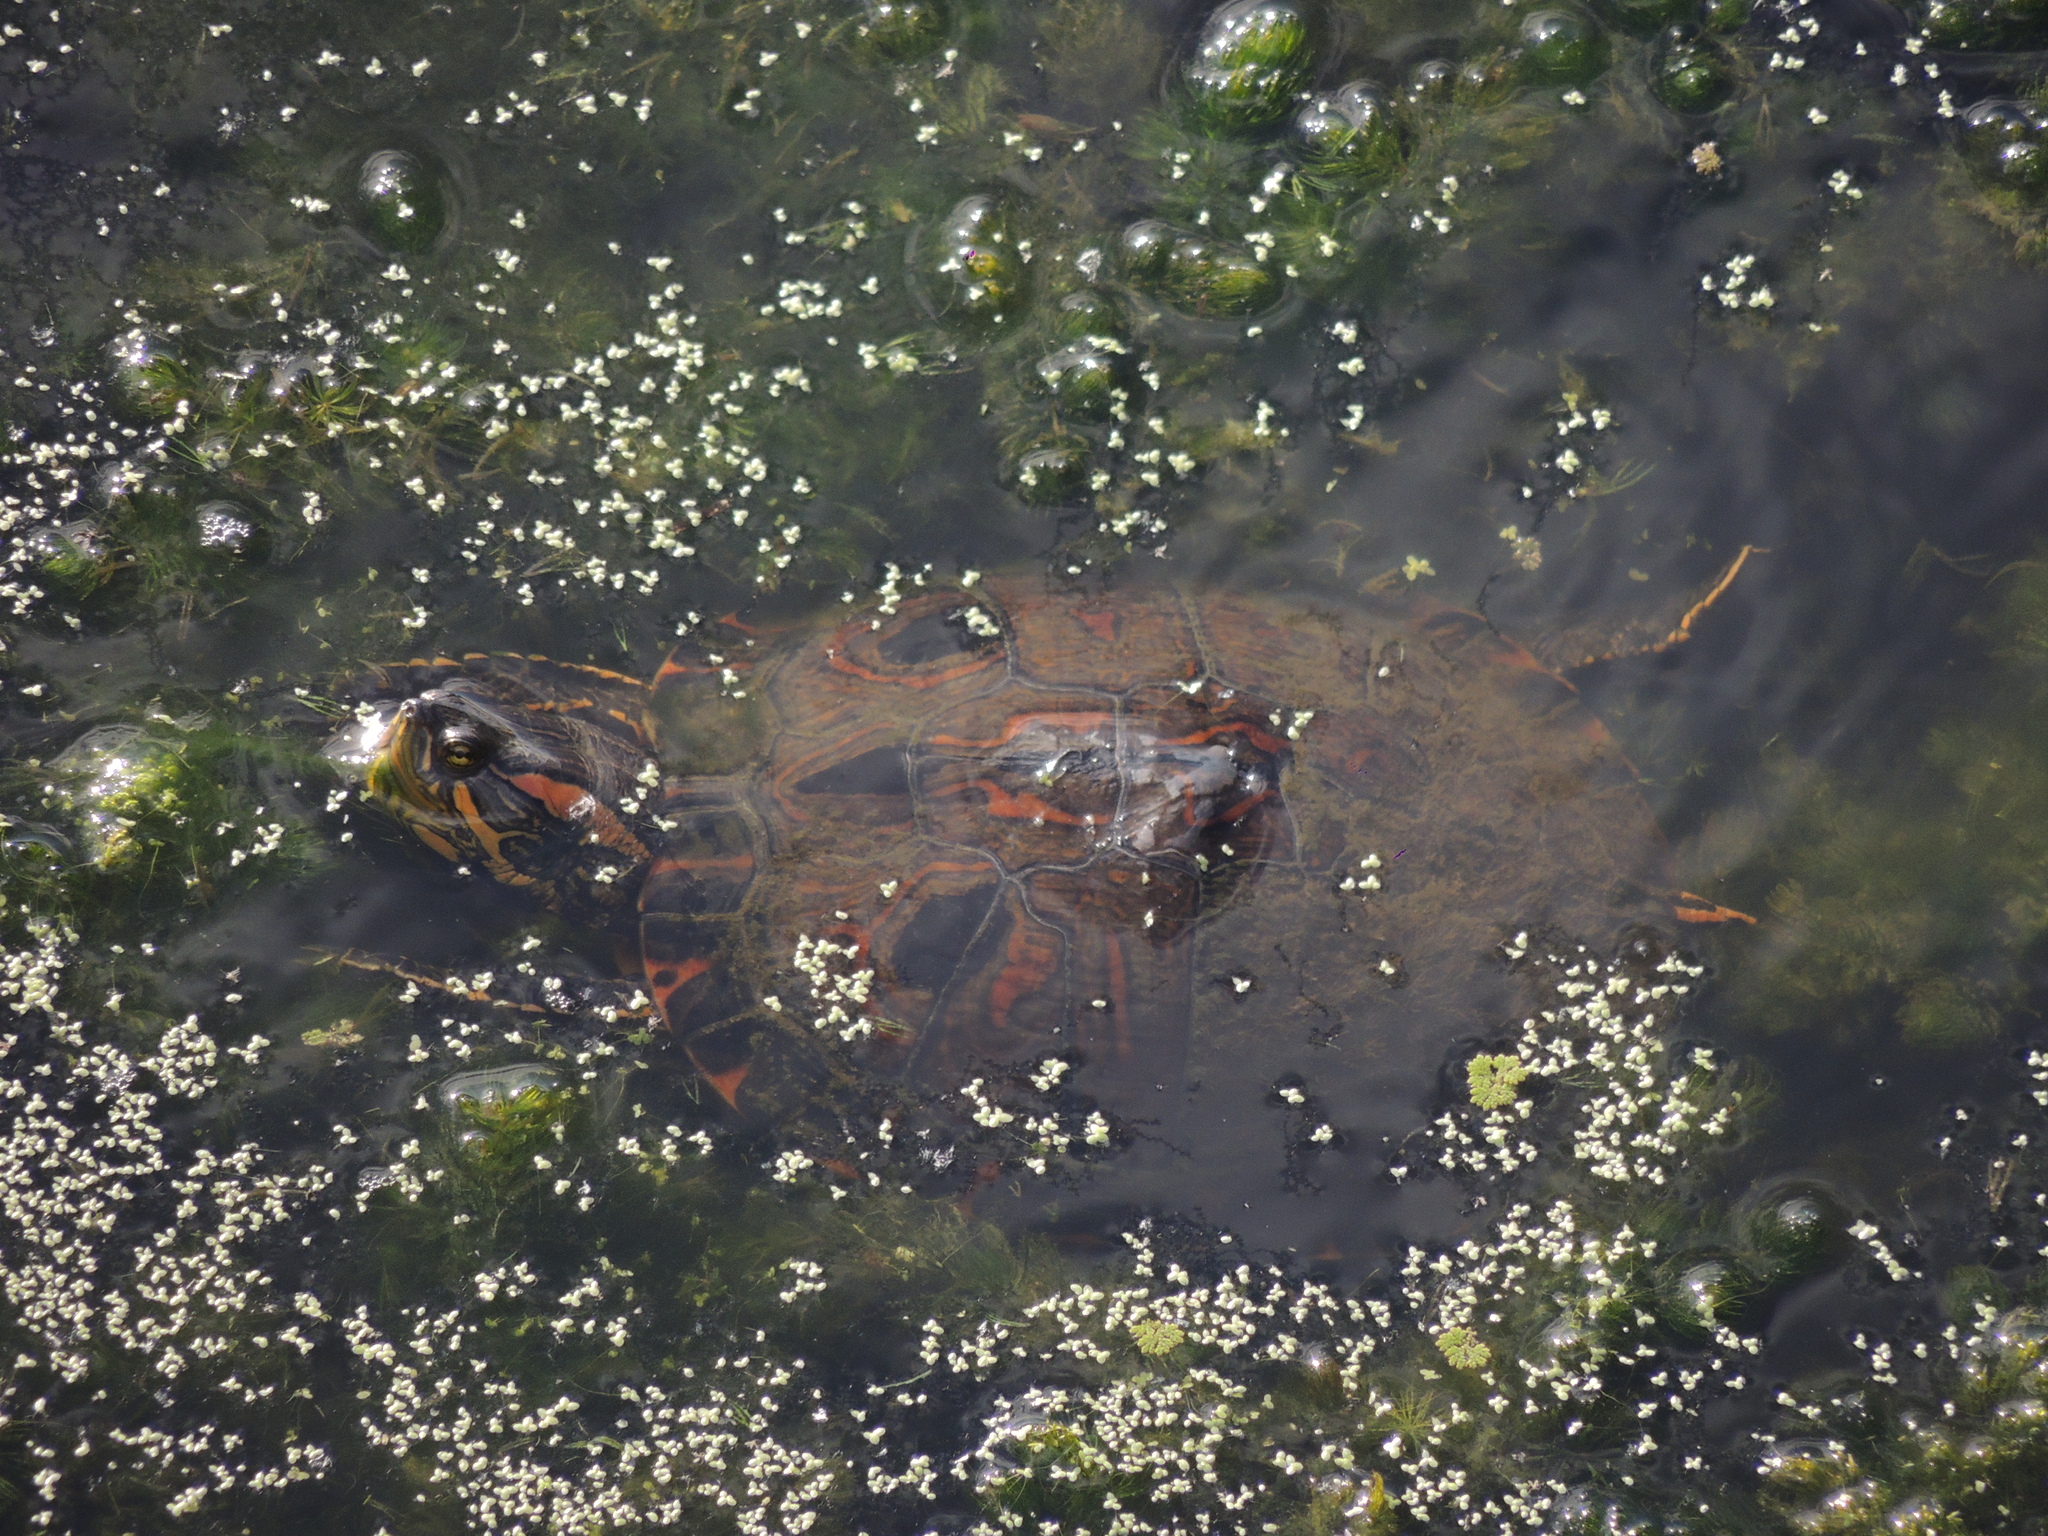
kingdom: Animalia
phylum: Chordata
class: Testudines
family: Emydidae
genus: Trachemys
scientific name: Trachemys dorbigni
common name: Black-bellied slider
